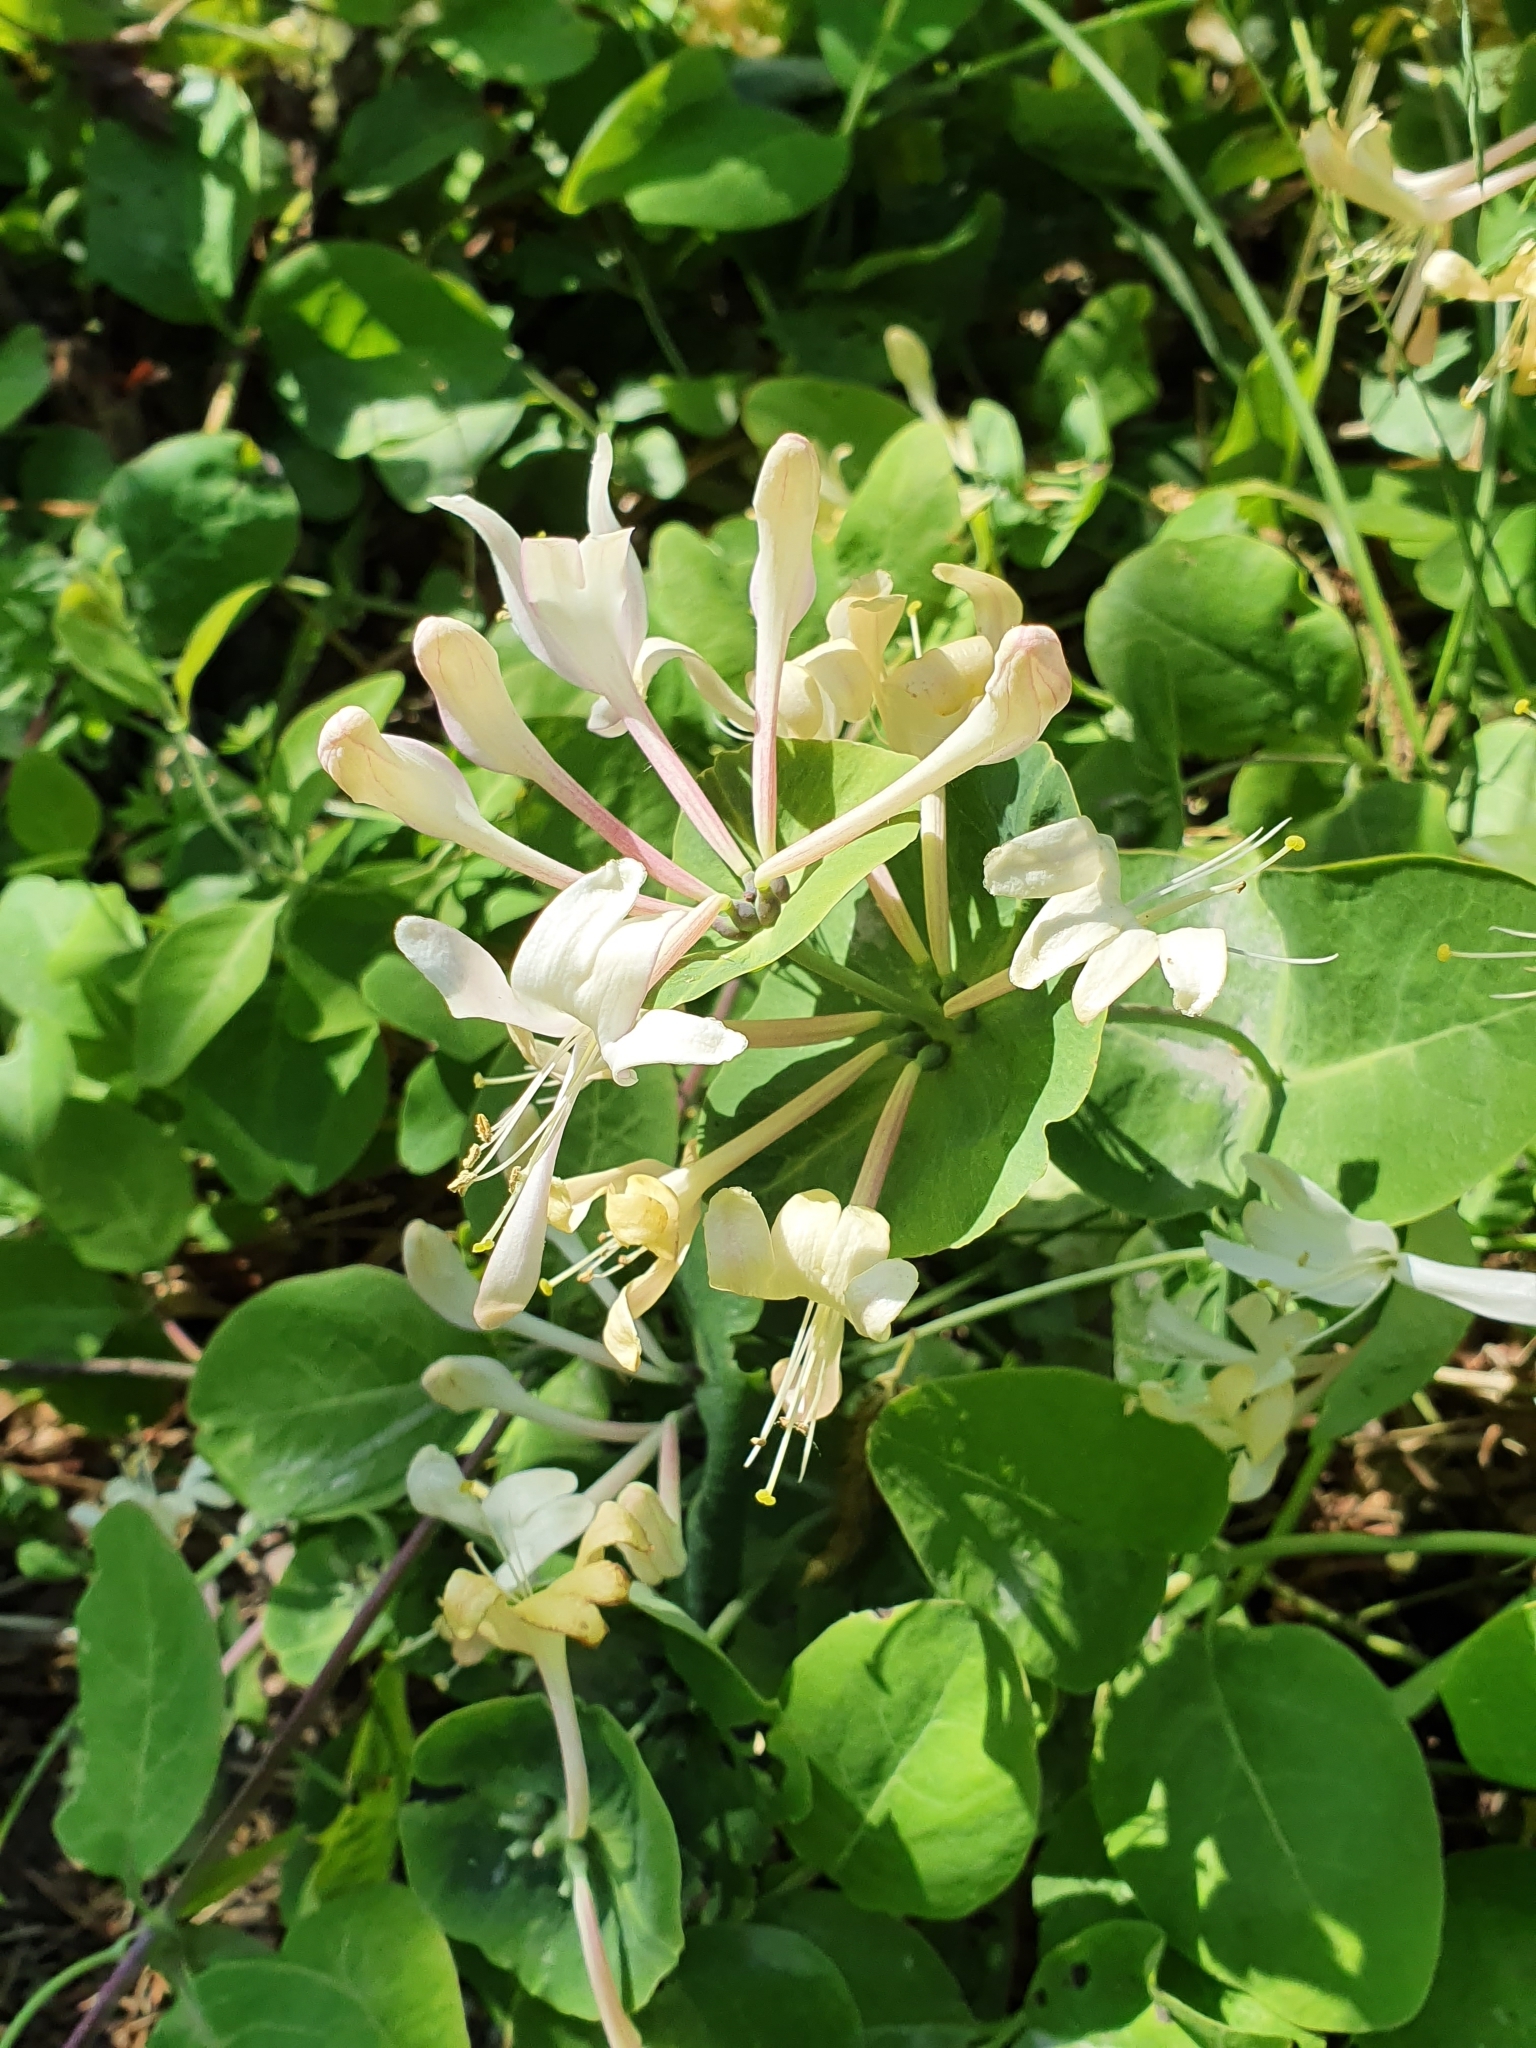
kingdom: Plantae
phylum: Tracheophyta
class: Magnoliopsida
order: Dipsacales
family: Caprifoliaceae
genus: Lonicera
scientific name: Lonicera caprifolium
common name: Perfoliate honeysuckle
